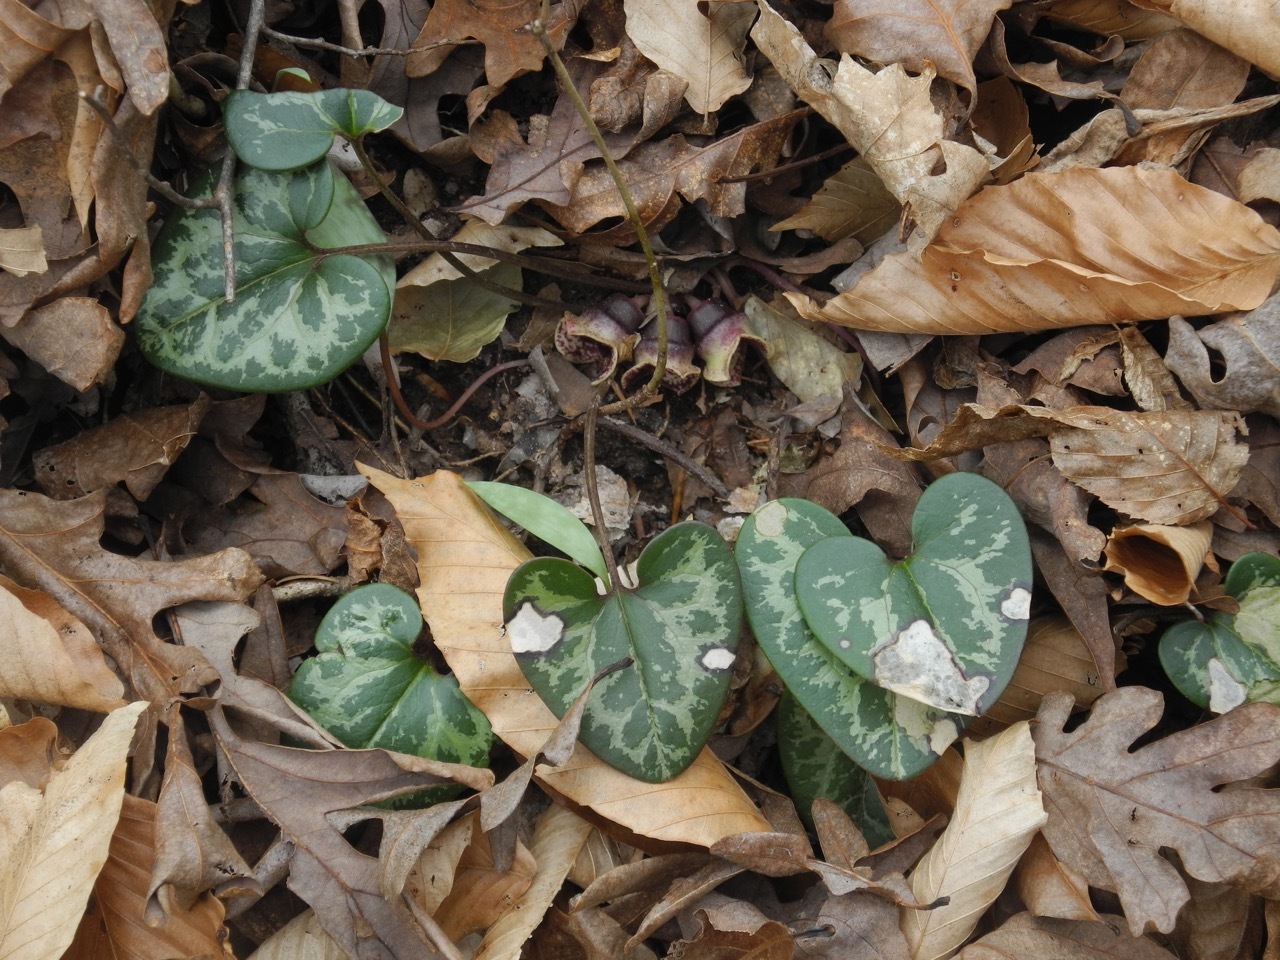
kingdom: Plantae
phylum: Tracheophyta
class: Magnoliopsida
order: Piperales
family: Aristolochiaceae
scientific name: Aristolochiaceae
